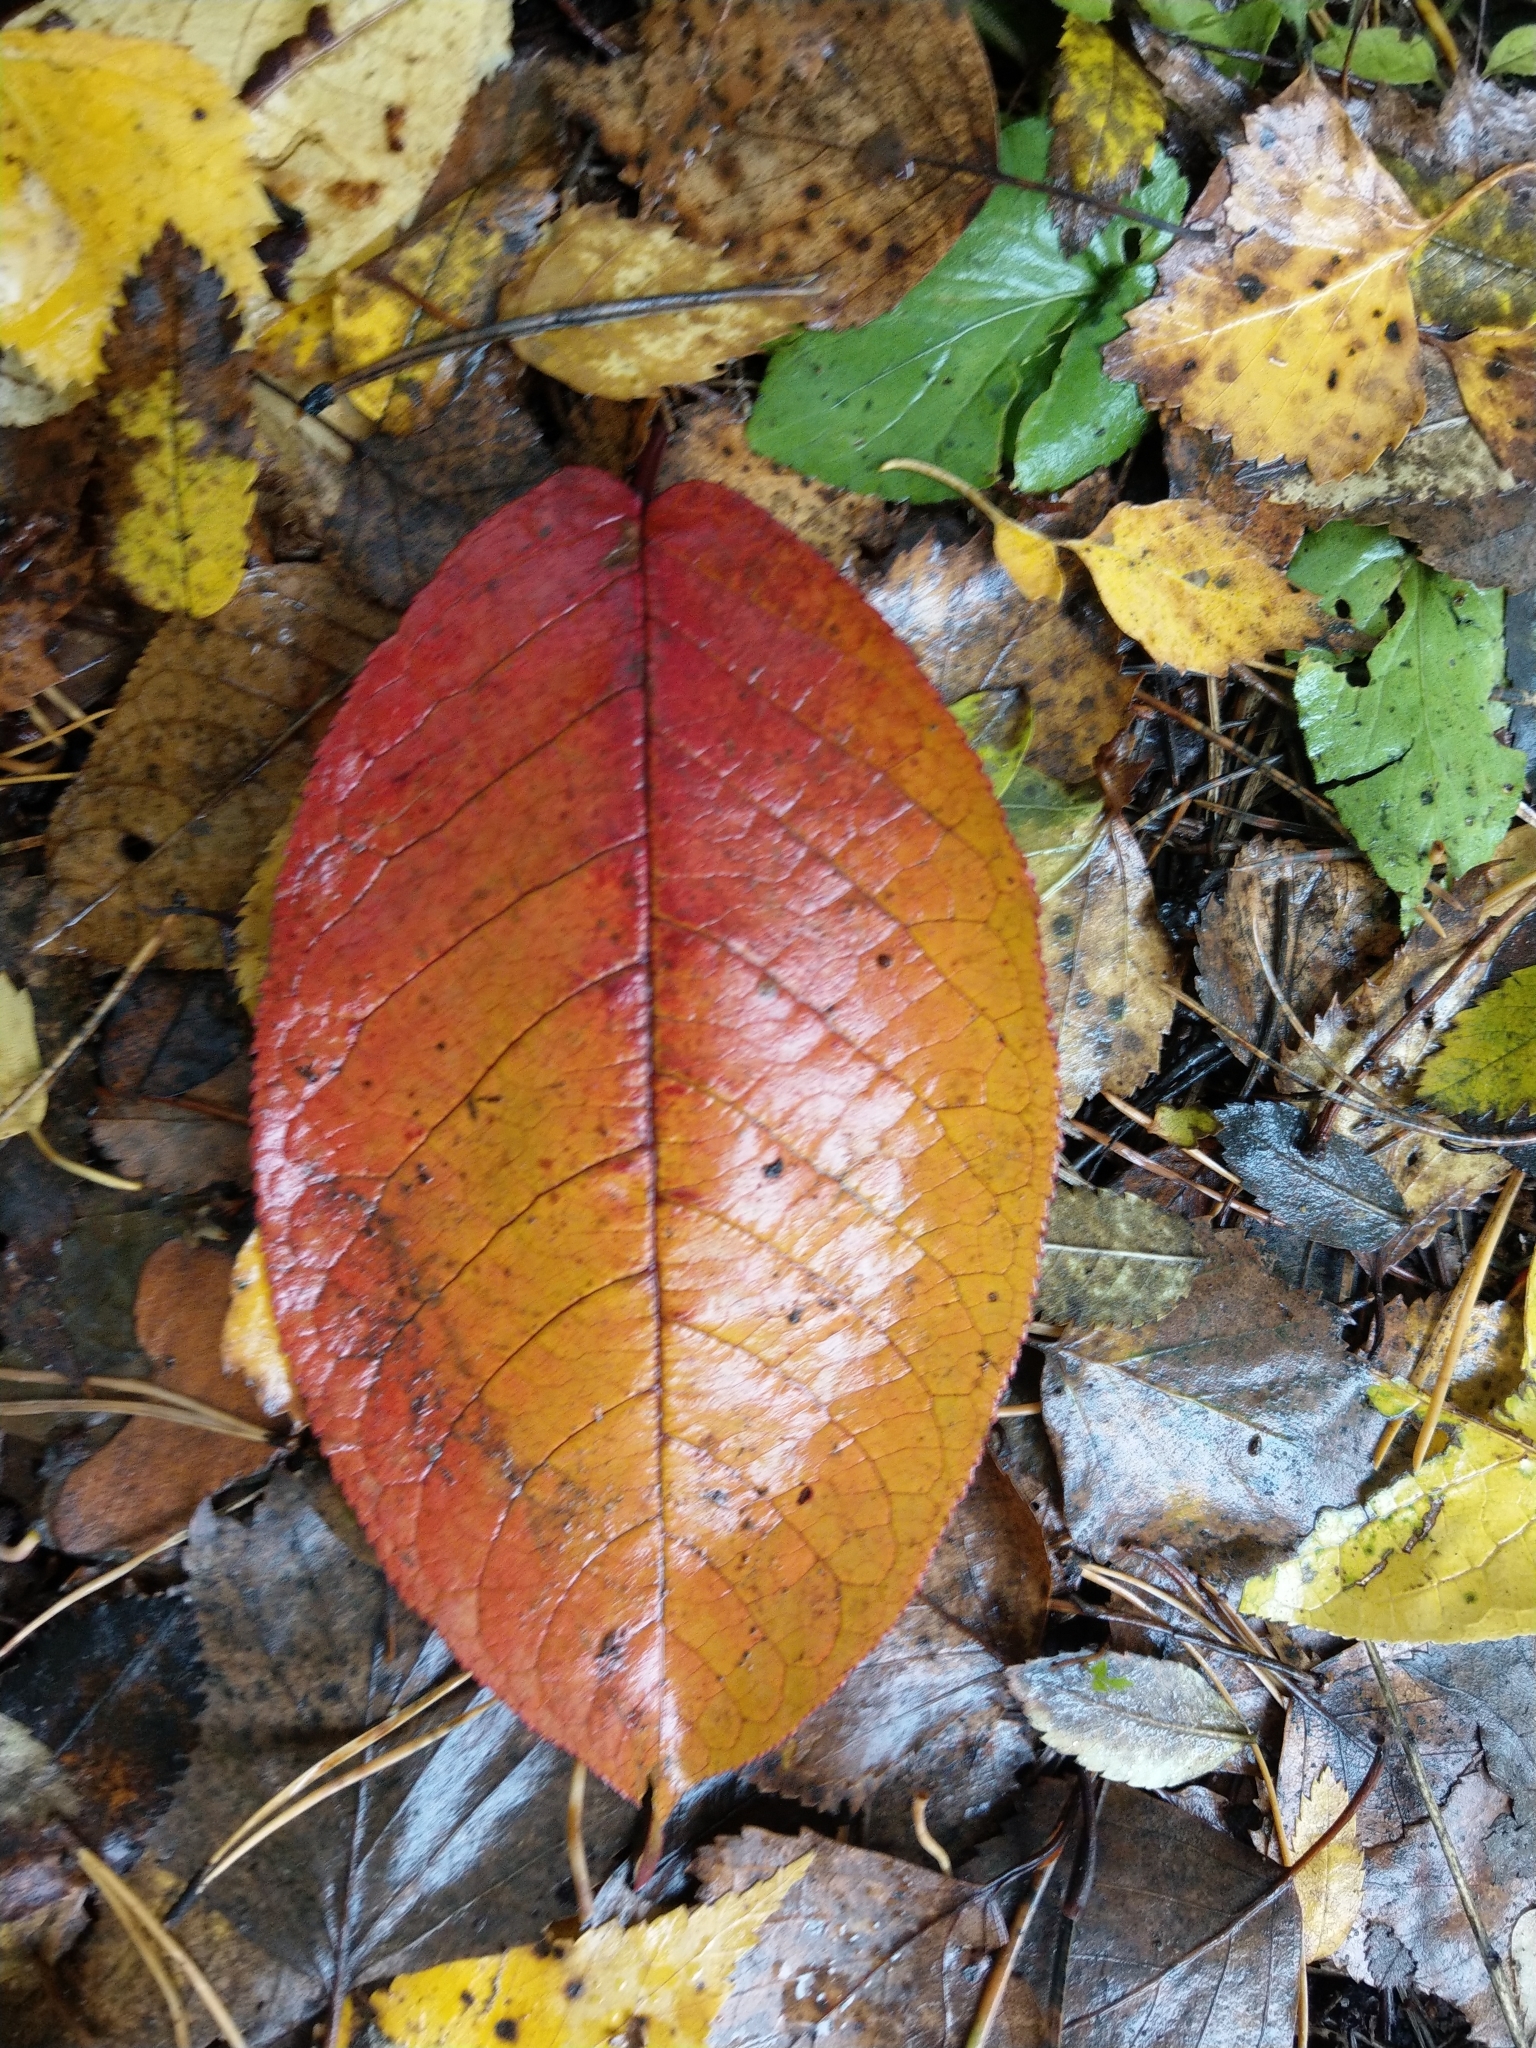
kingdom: Plantae
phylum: Tracheophyta
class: Magnoliopsida
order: Rosales
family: Rosaceae
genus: Prunus
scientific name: Prunus padus
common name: Bird cherry
